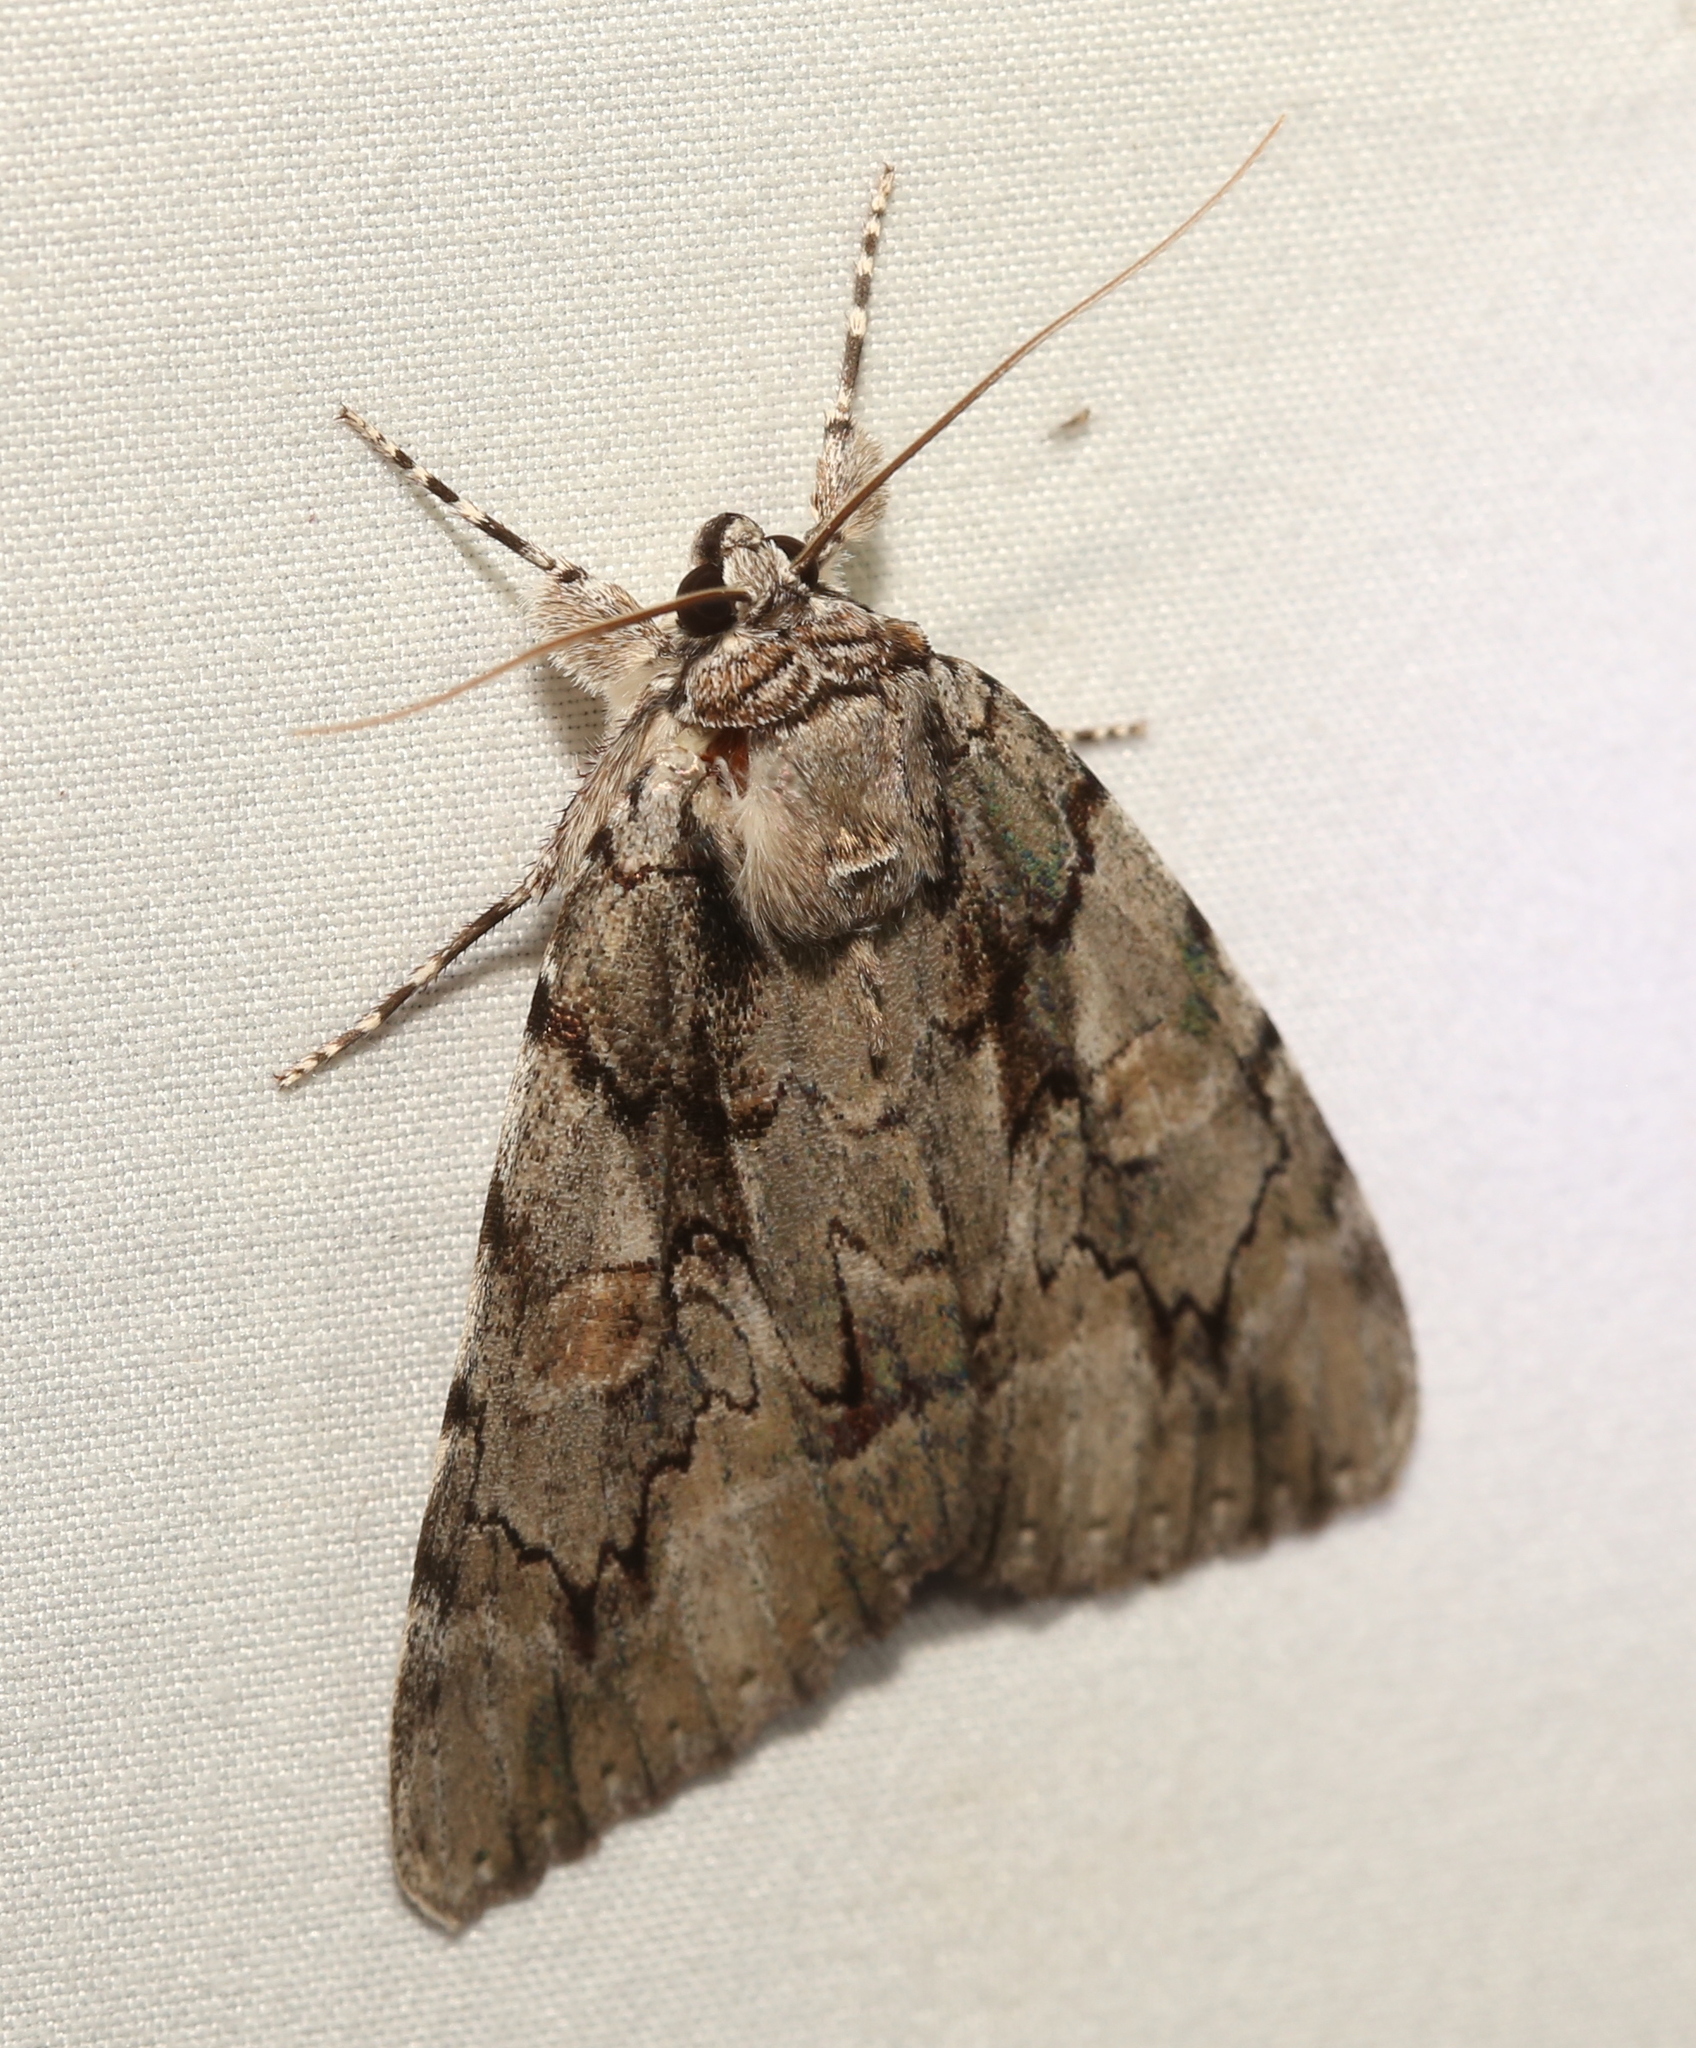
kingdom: Animalia
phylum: Arthropoda
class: Insecta
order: Lepidoptera
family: Erebidae
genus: Catocala
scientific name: Catocala flebilis
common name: Mournful underwing
